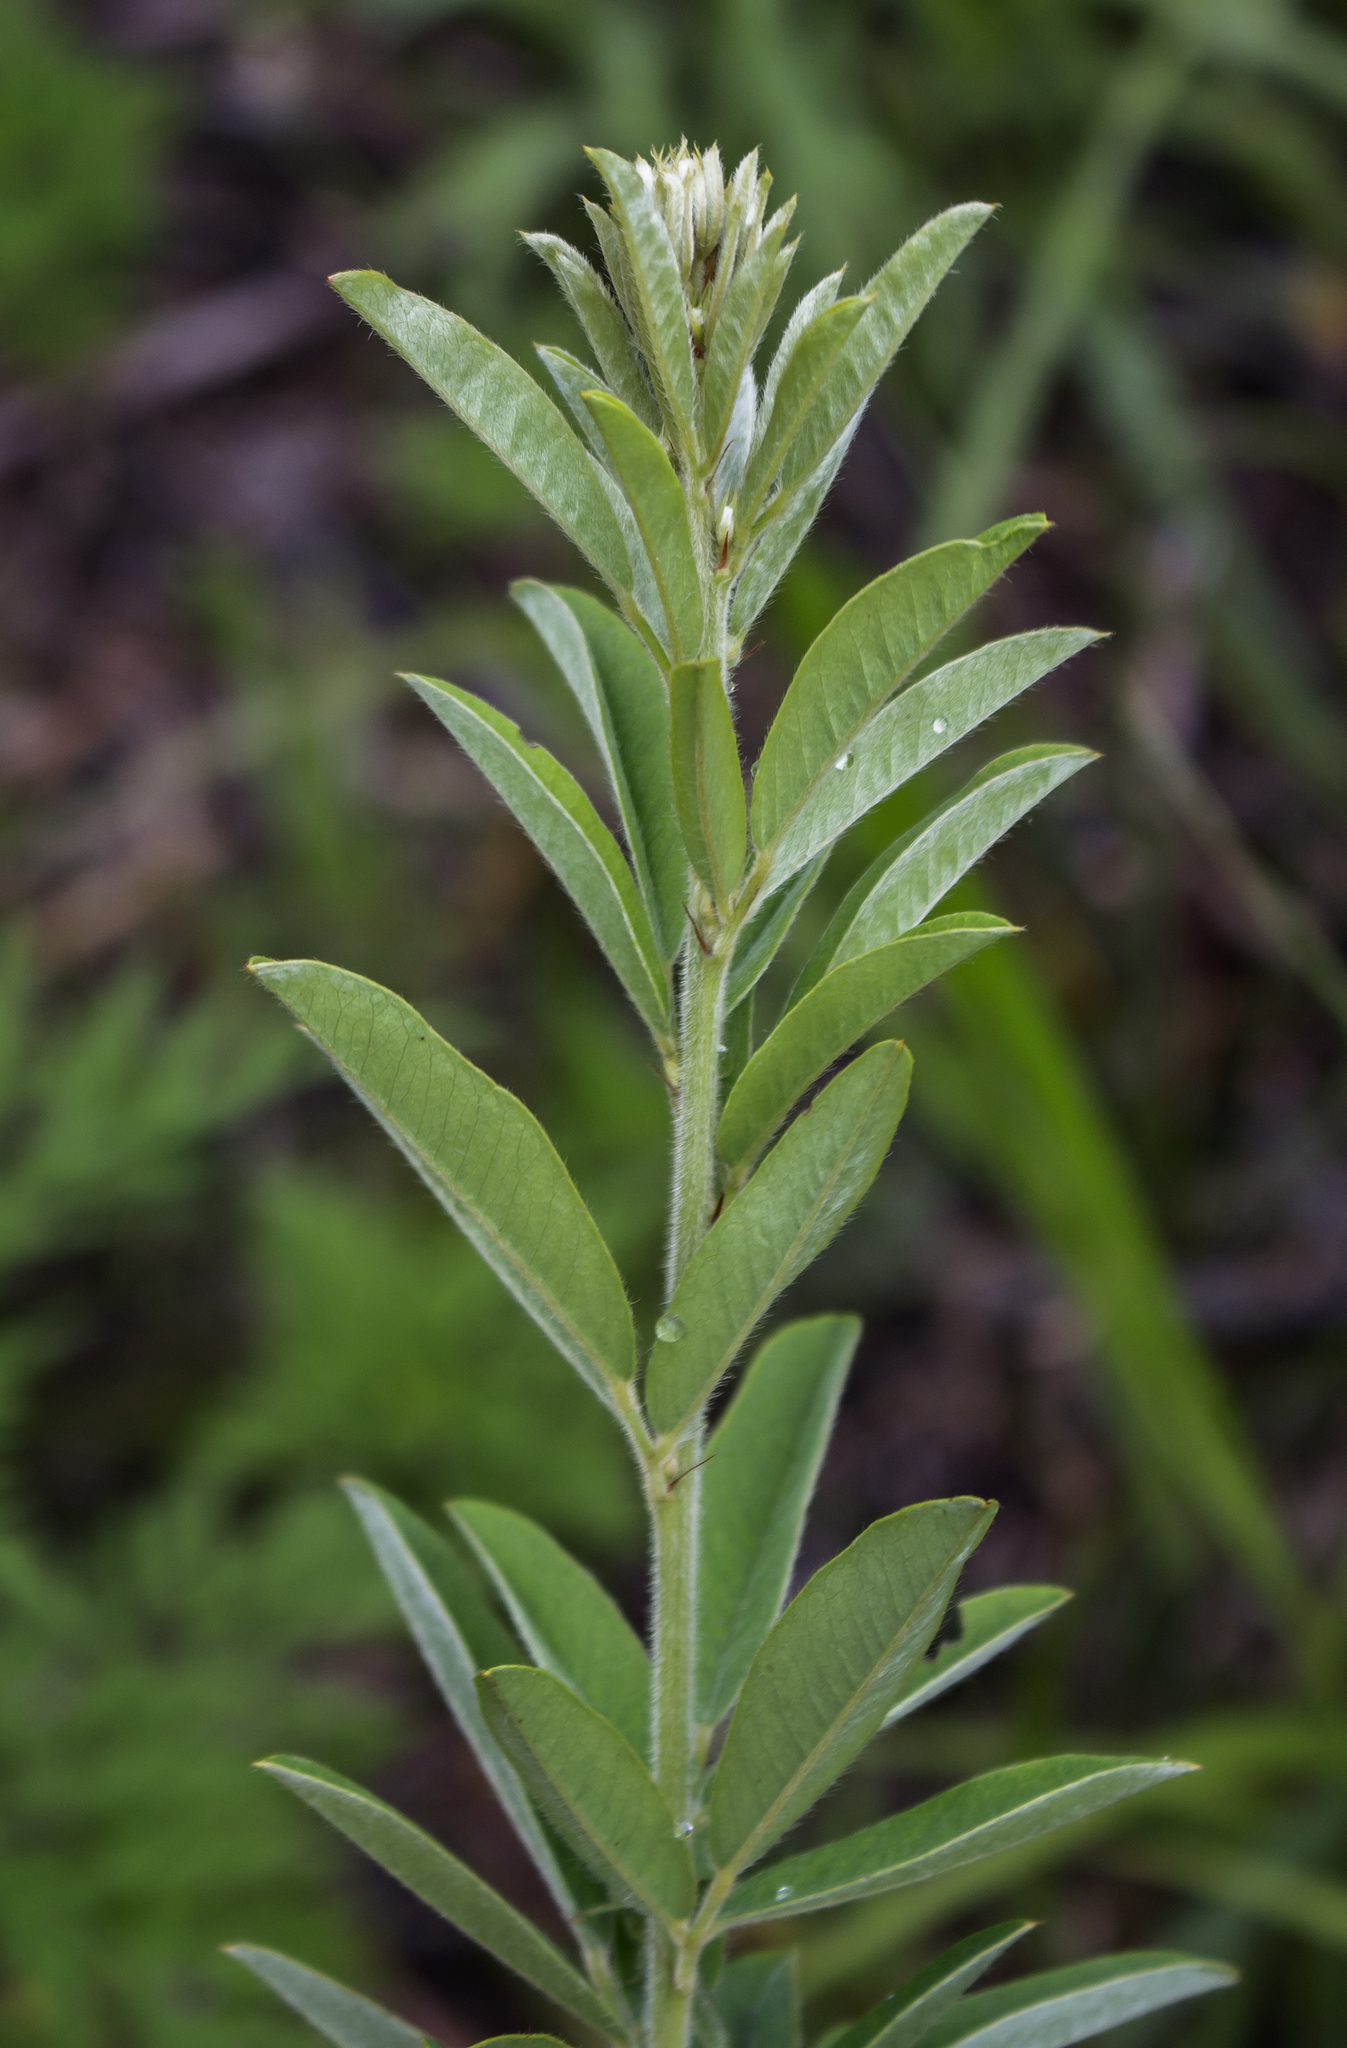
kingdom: Plantae
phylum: Tracheophyta
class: Magnoliopsida
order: Fabales
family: Fabaceae
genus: Lespedeza
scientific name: Lespedeza capitata
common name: Dusty clover
